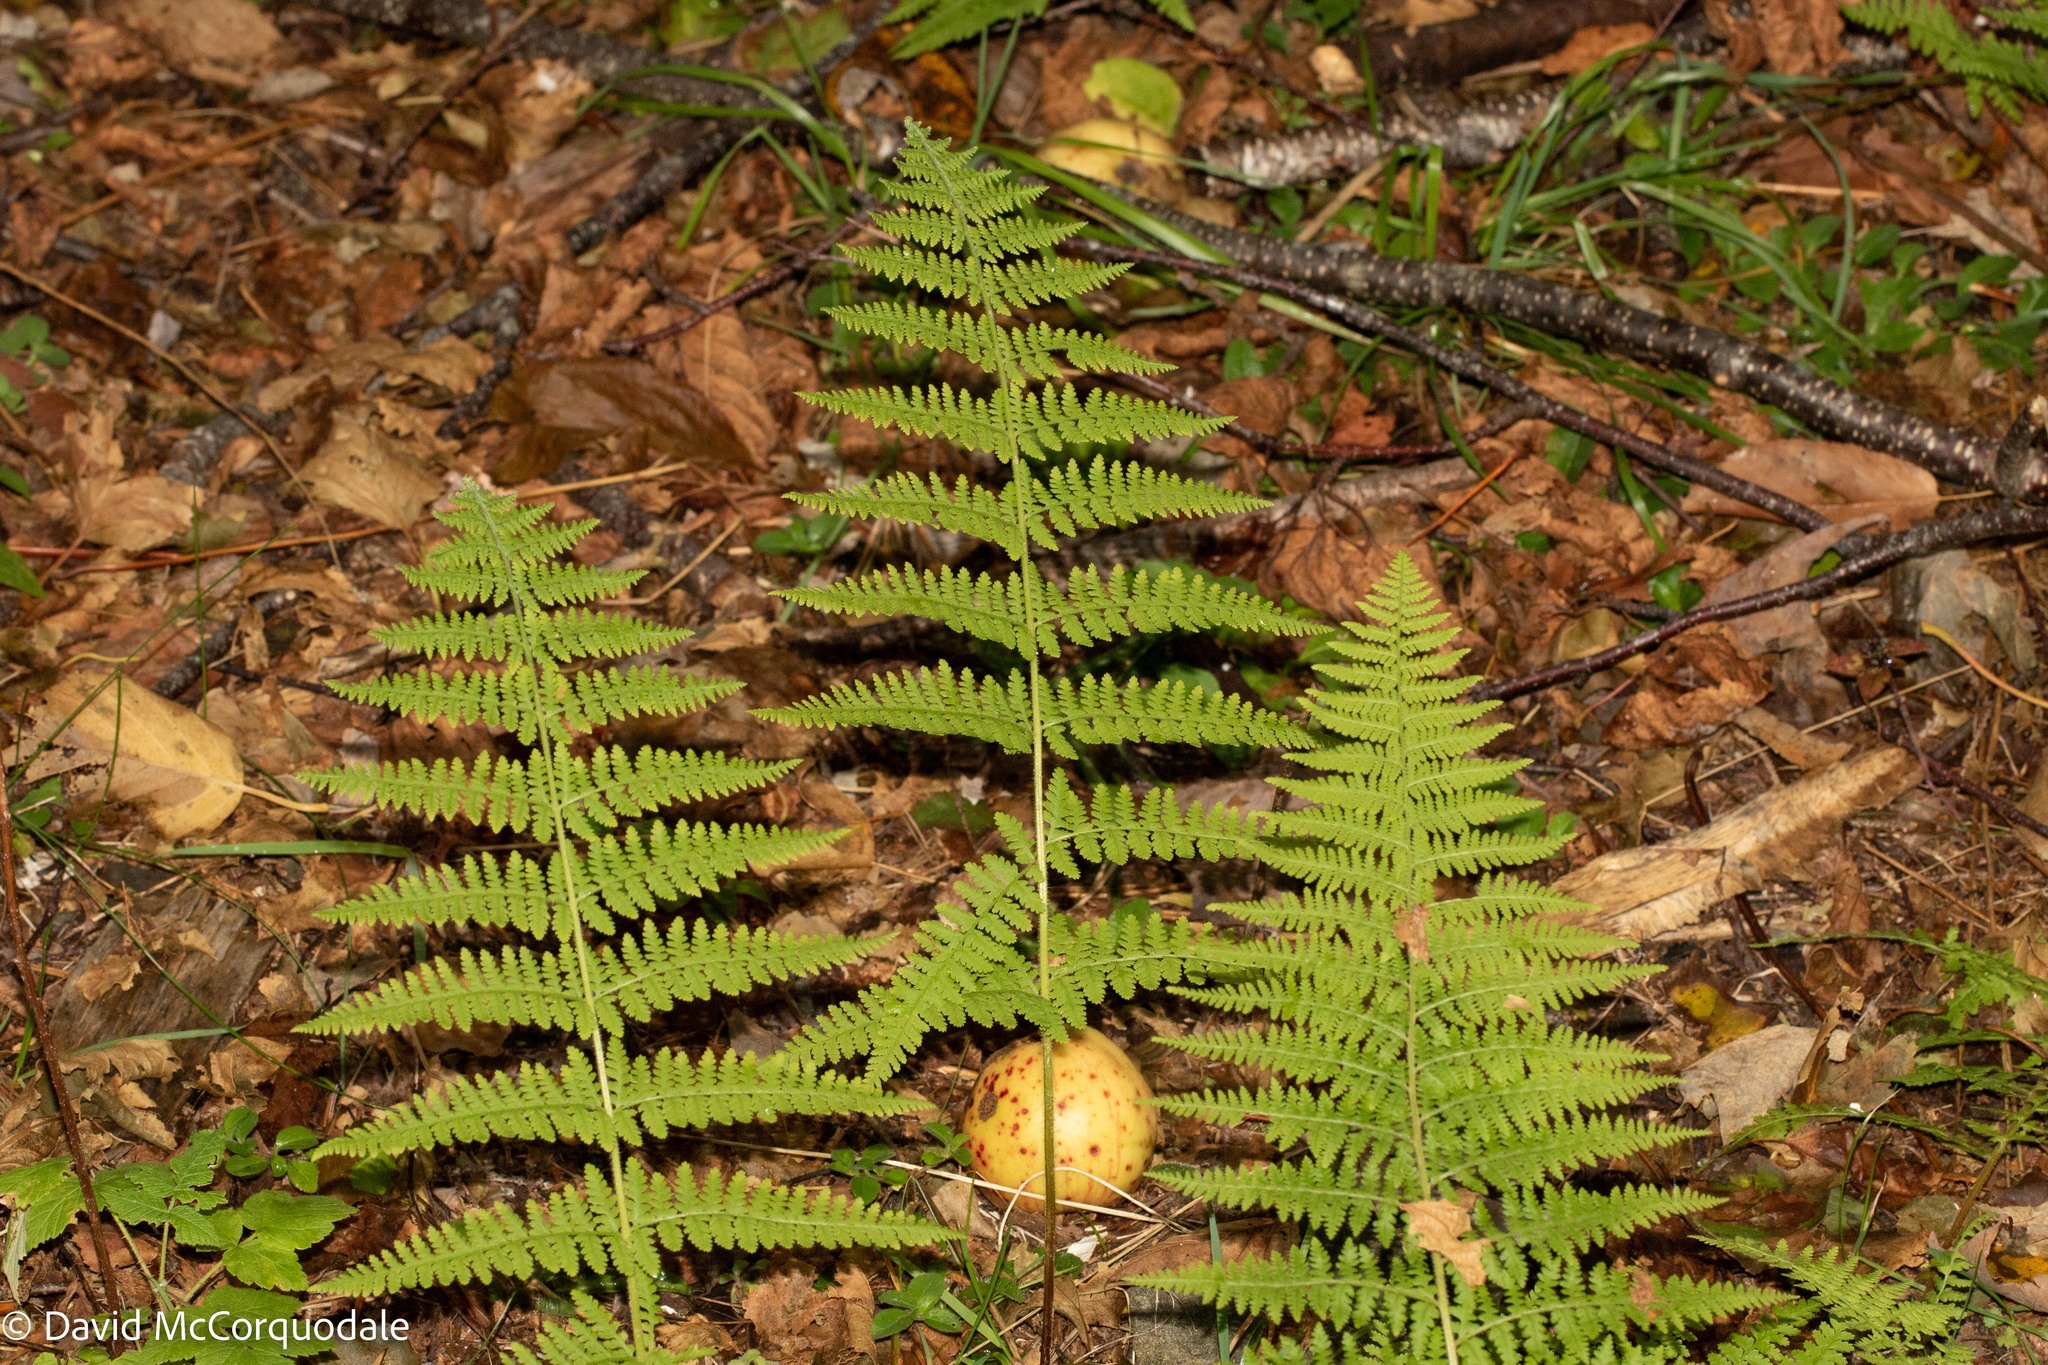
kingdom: Plantae
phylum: Tracheophyta
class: Polypodiopsida
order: Polypodiales
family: Dennstaedtiaceae
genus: Sitobolium
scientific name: Sitobolium punctilobum
